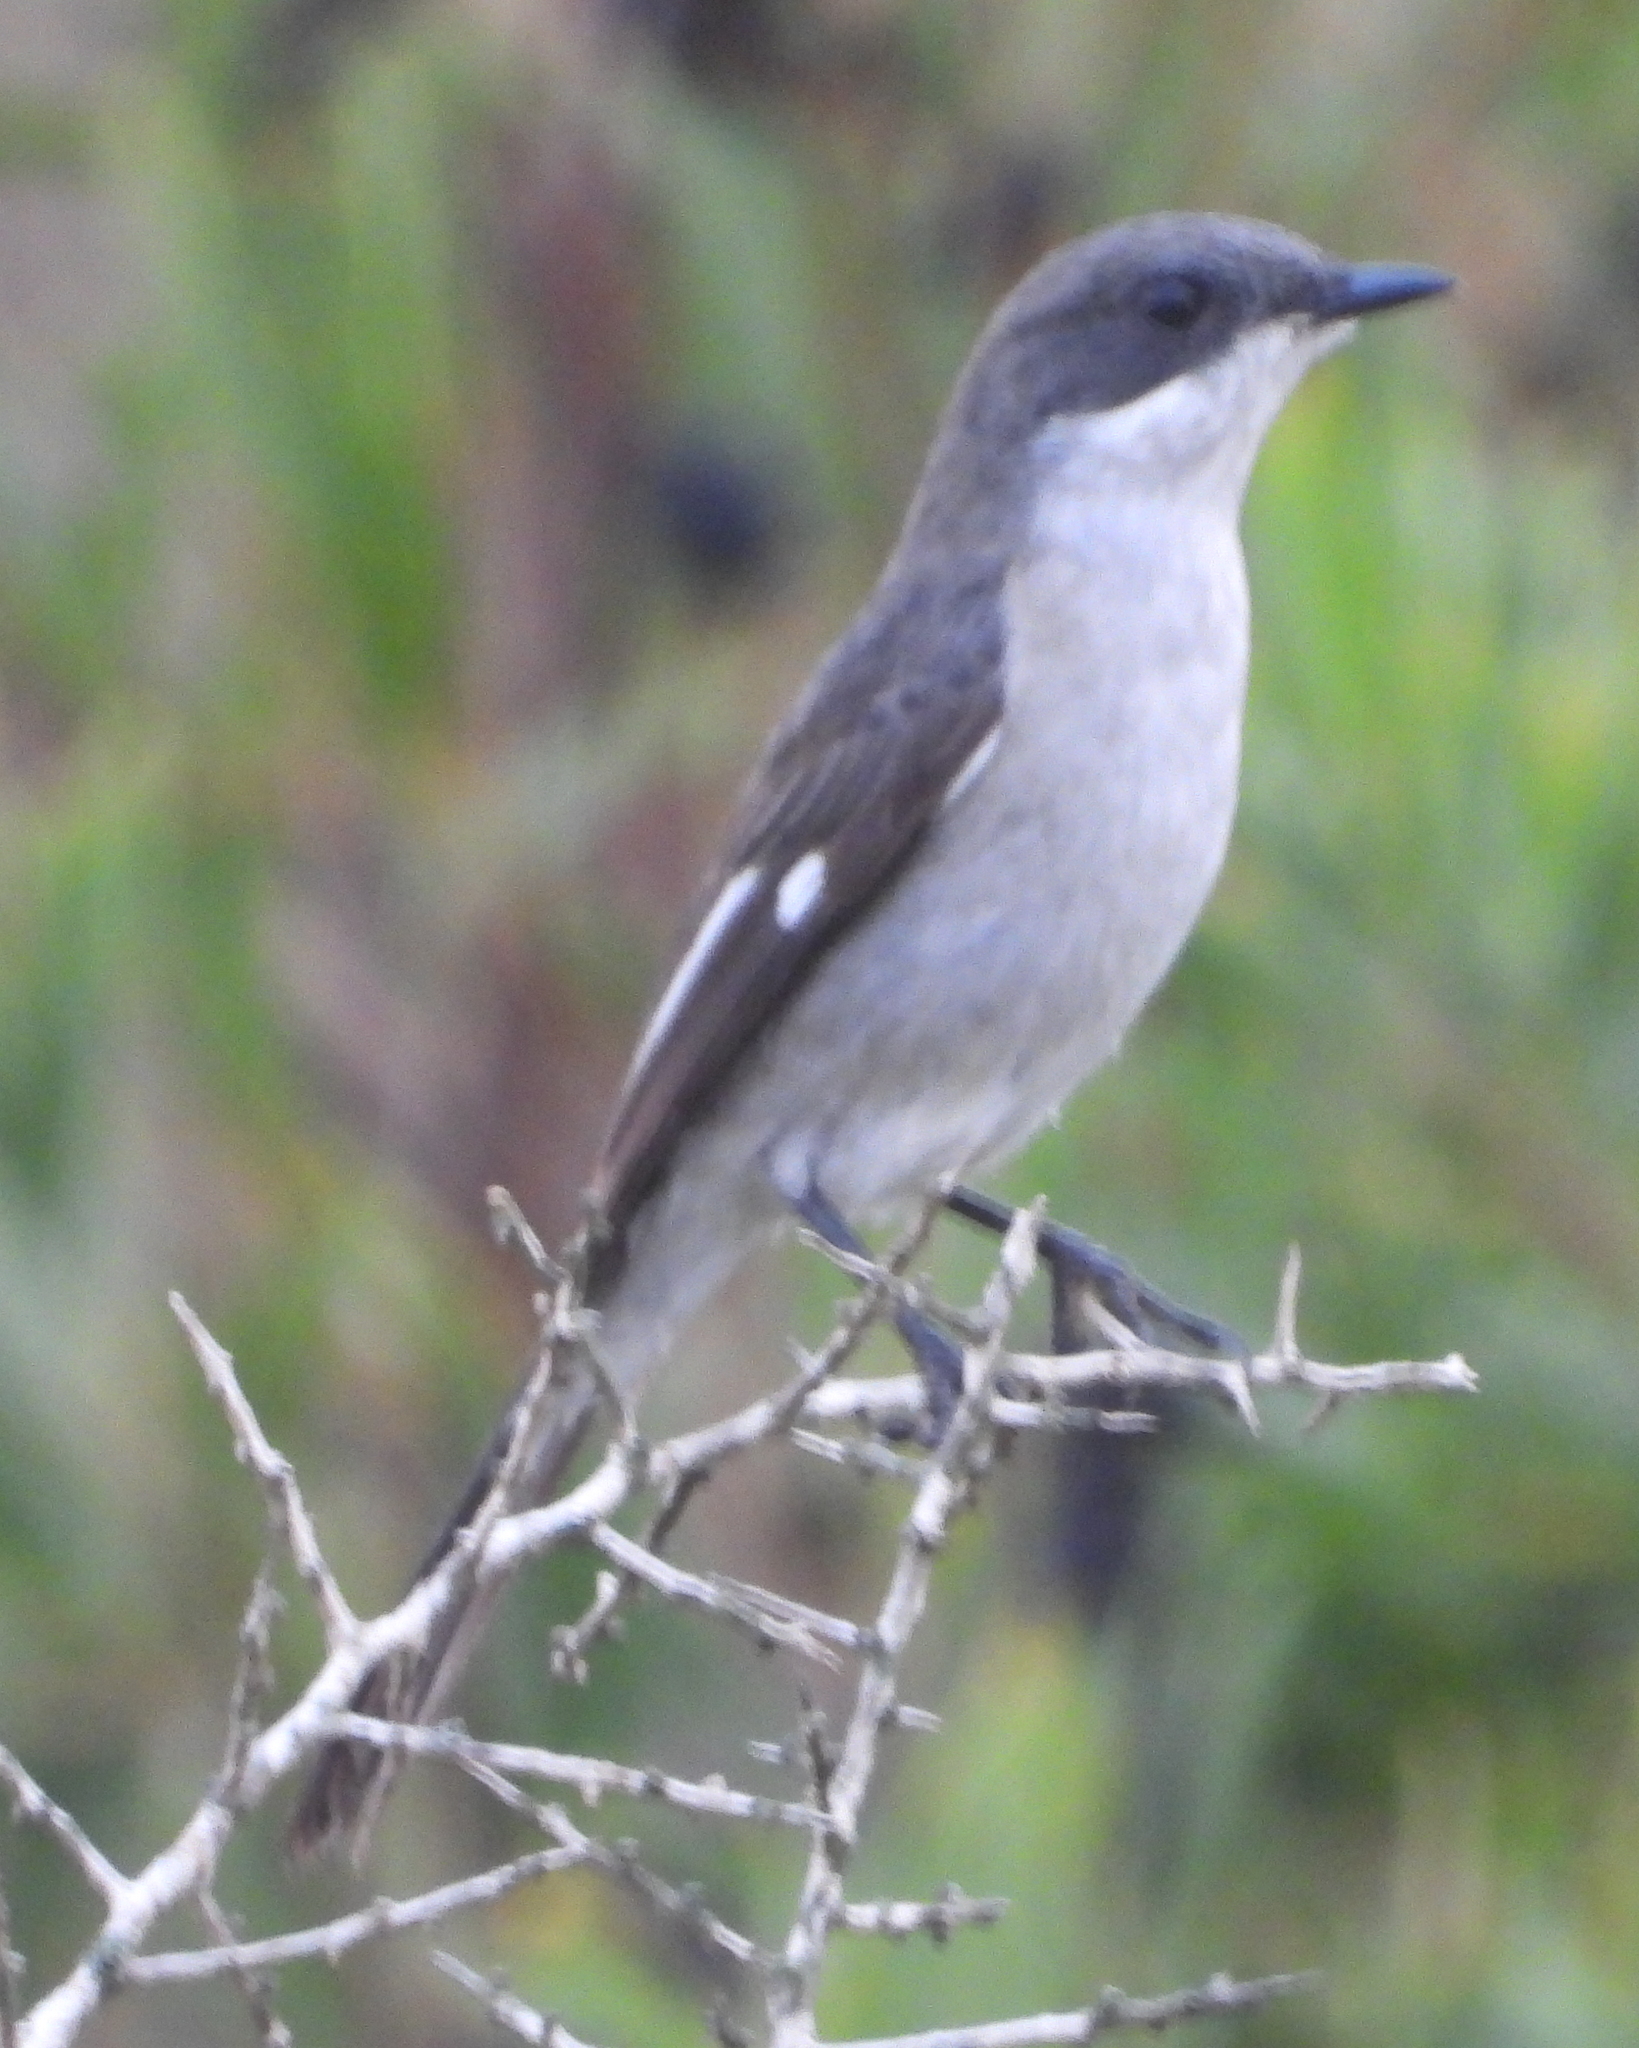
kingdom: Animalia
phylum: Chordata
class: Aves
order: Passeriformes
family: Muscicapidae
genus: Sigelus
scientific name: Sigelus silens
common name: Fiscal flycatcher
